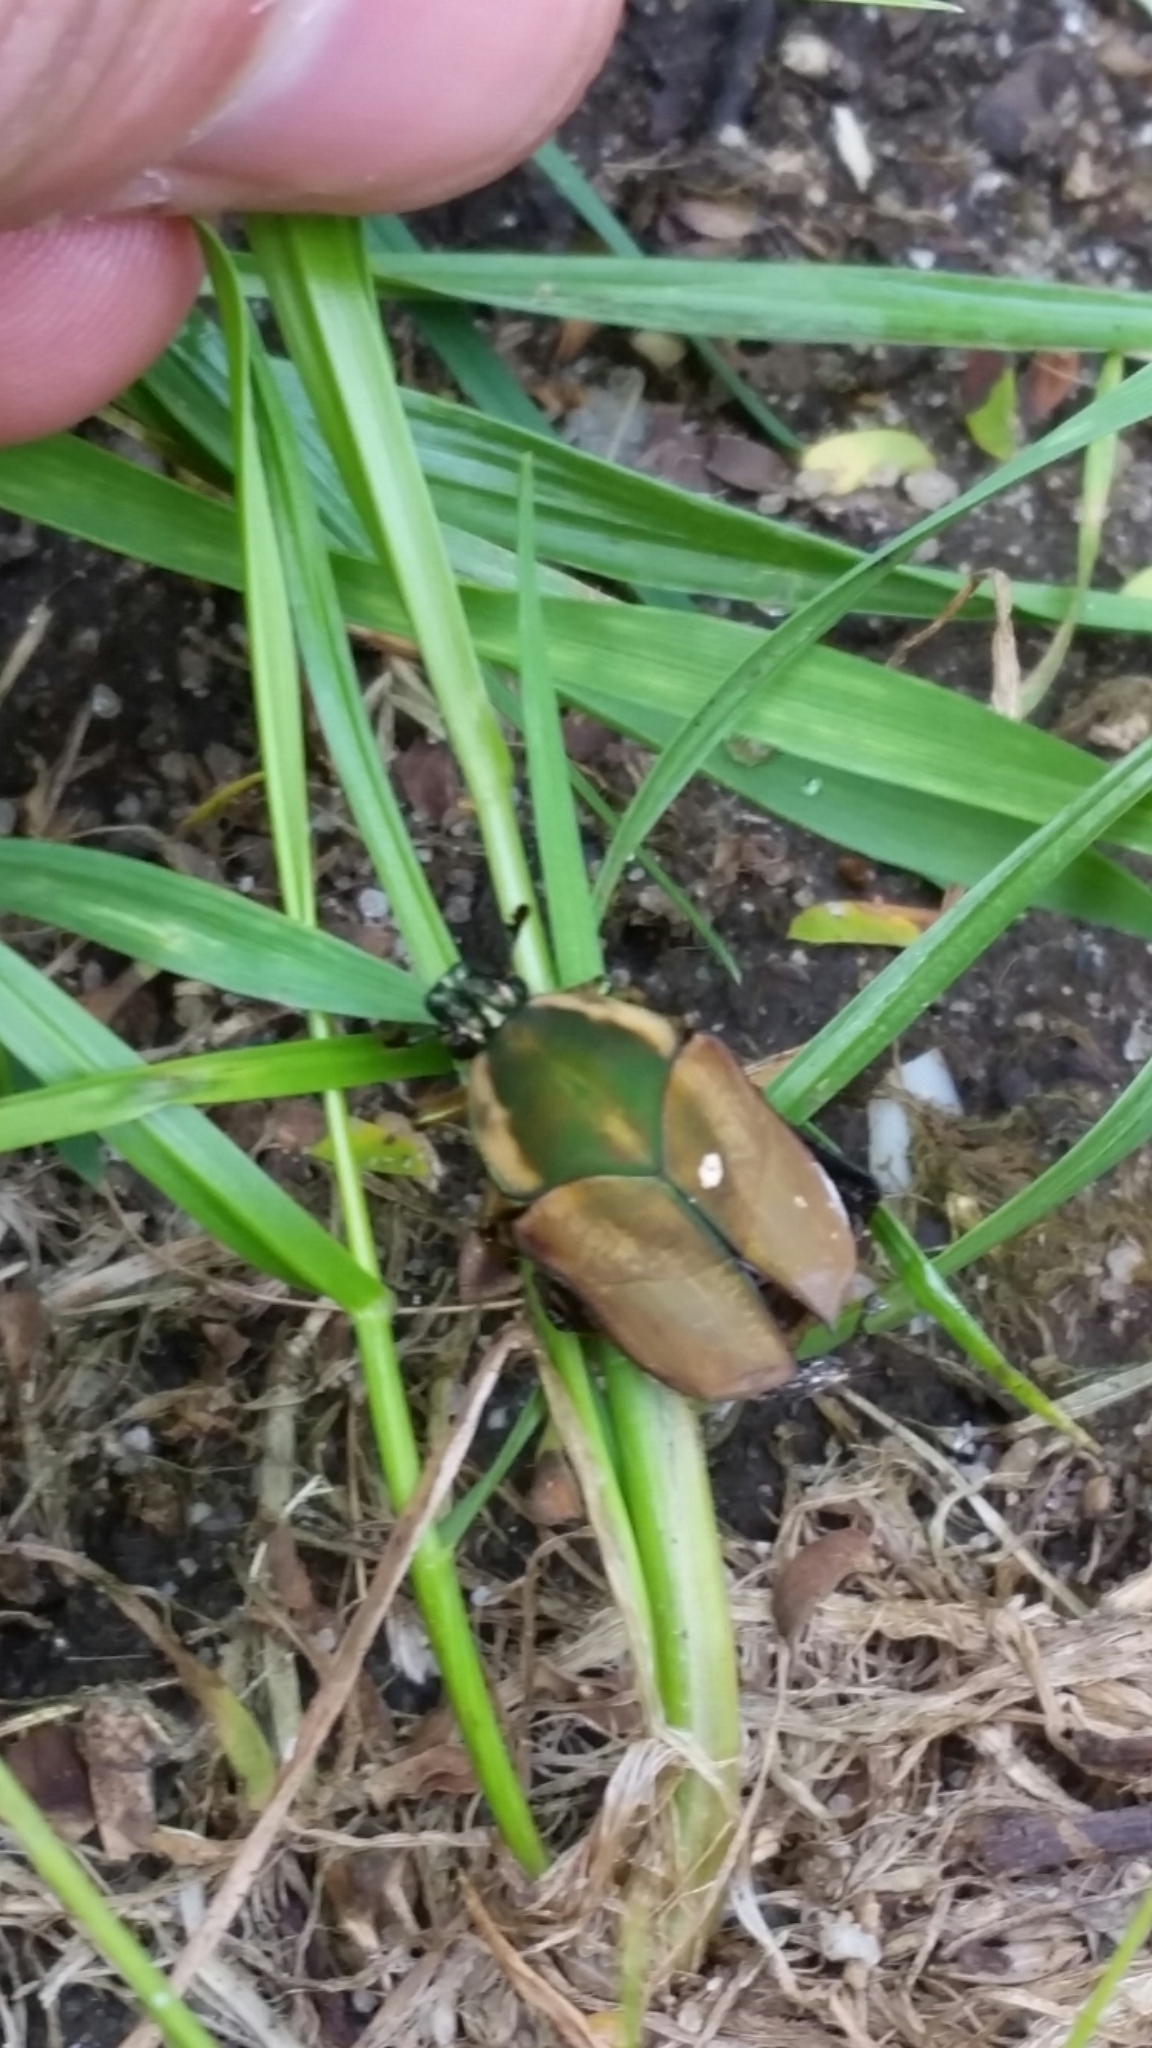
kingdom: Animalia
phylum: Arthropoda
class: Insecta
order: Coleoptera
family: Scarabaeidae
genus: Cotinis
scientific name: Cotinis nitida
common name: Common green june beetle
